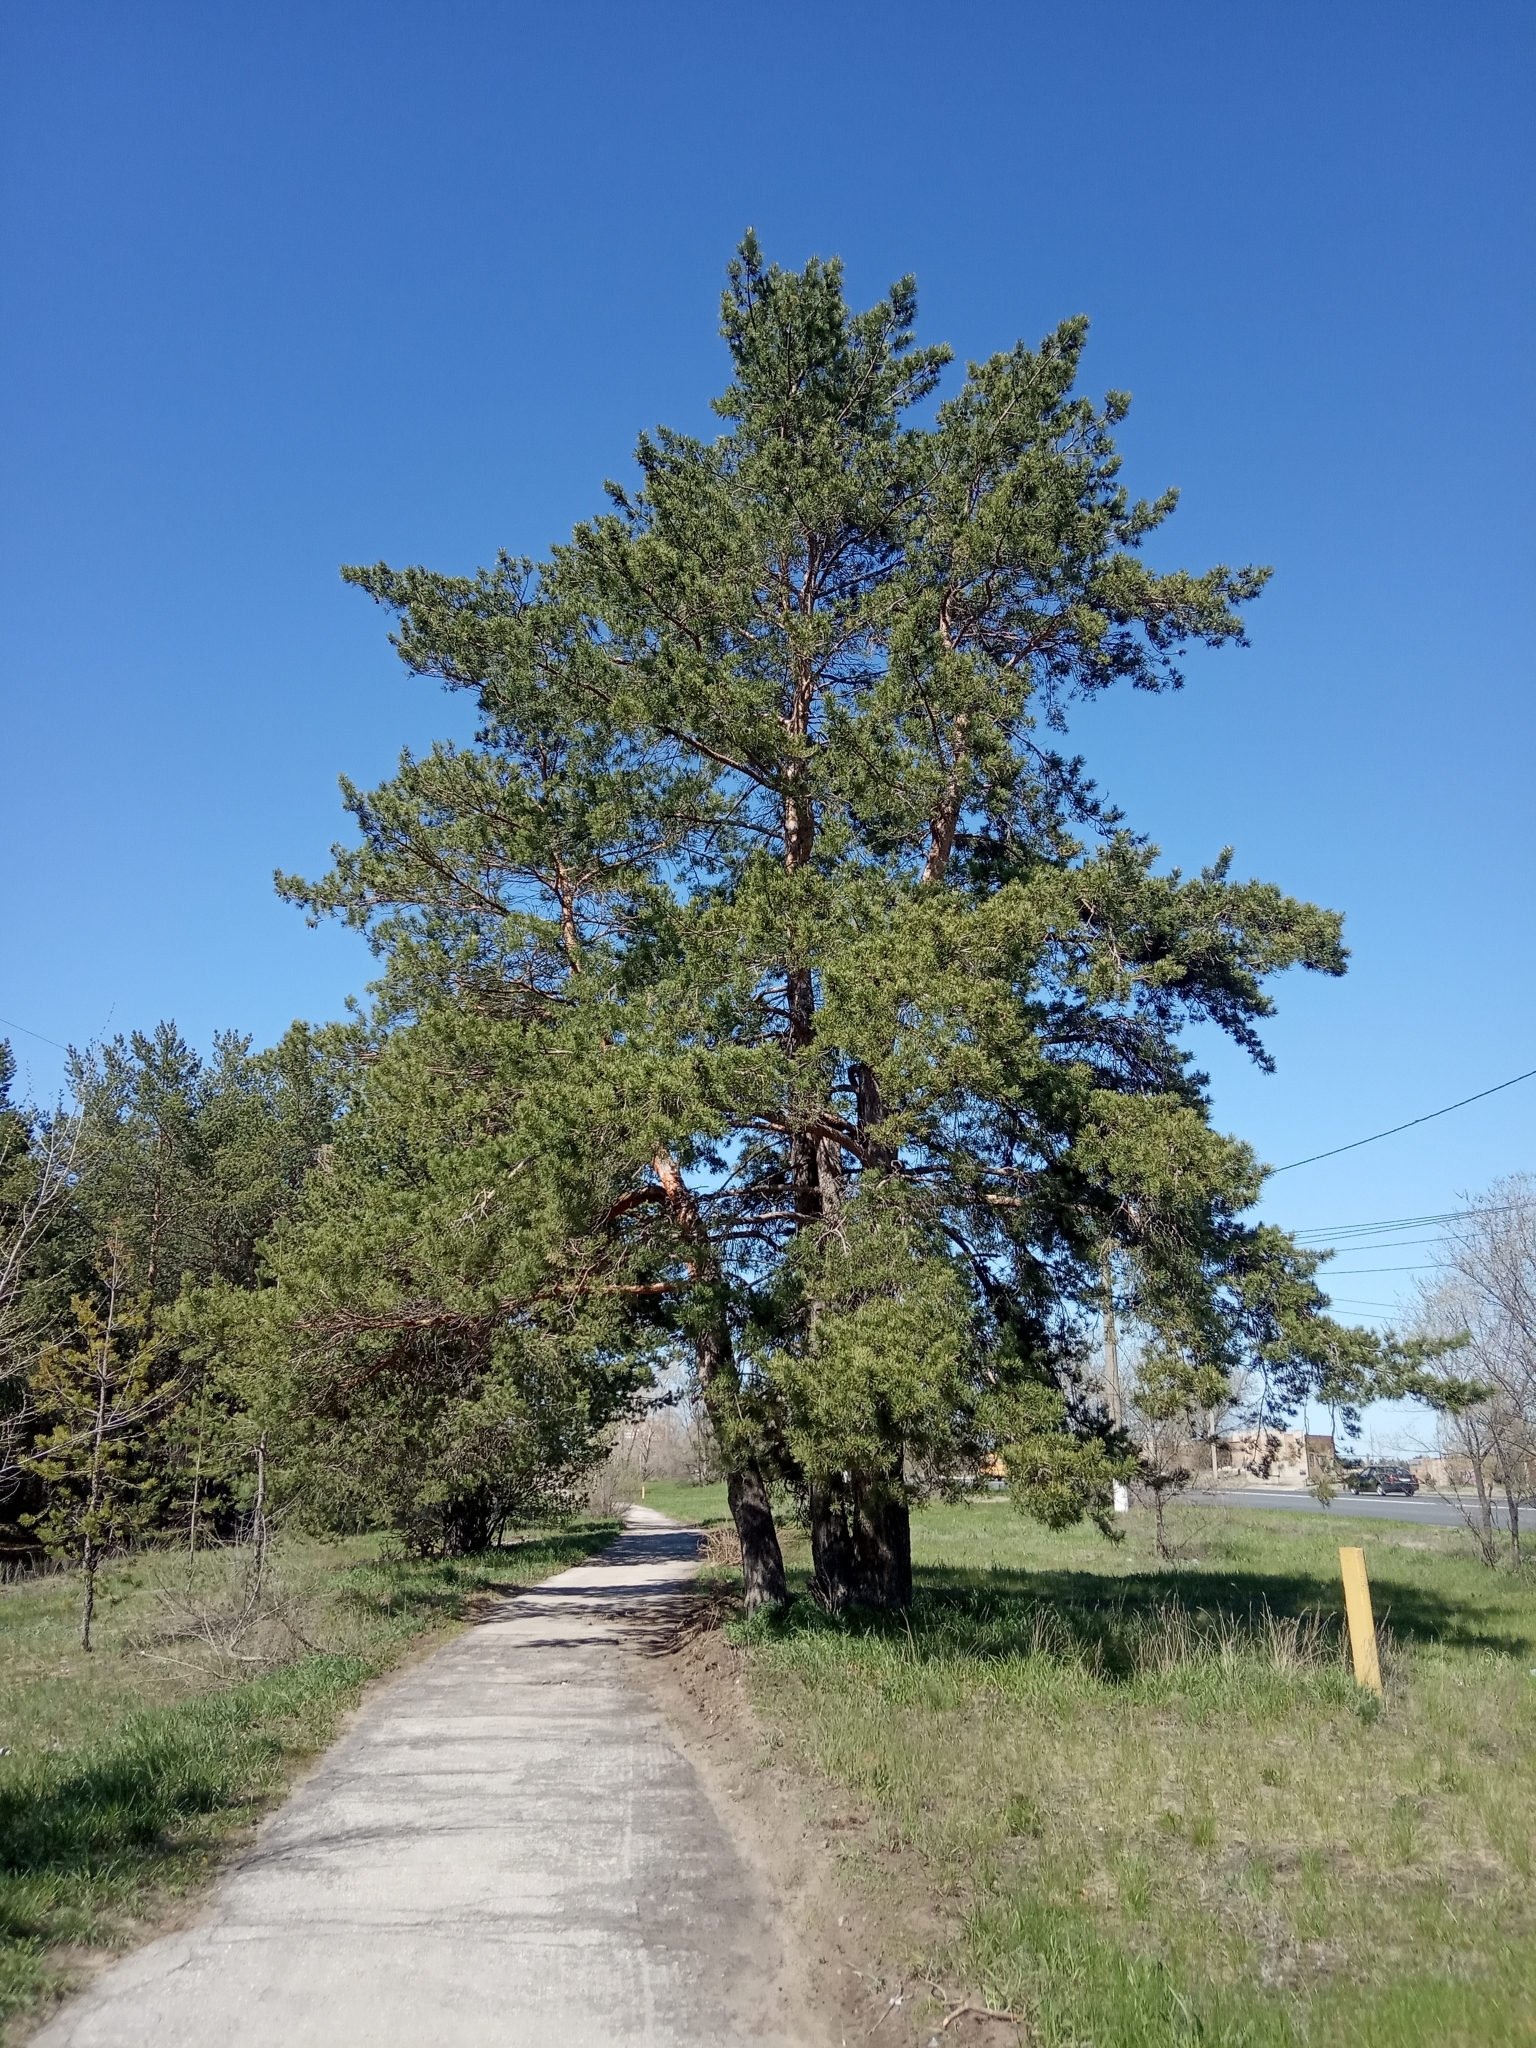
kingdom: Plantae
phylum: Tracheophyta
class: Pinopsida
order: Pinales
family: Pinaceae
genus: Pinus
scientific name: Pinus sylvestris
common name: Scots pine
